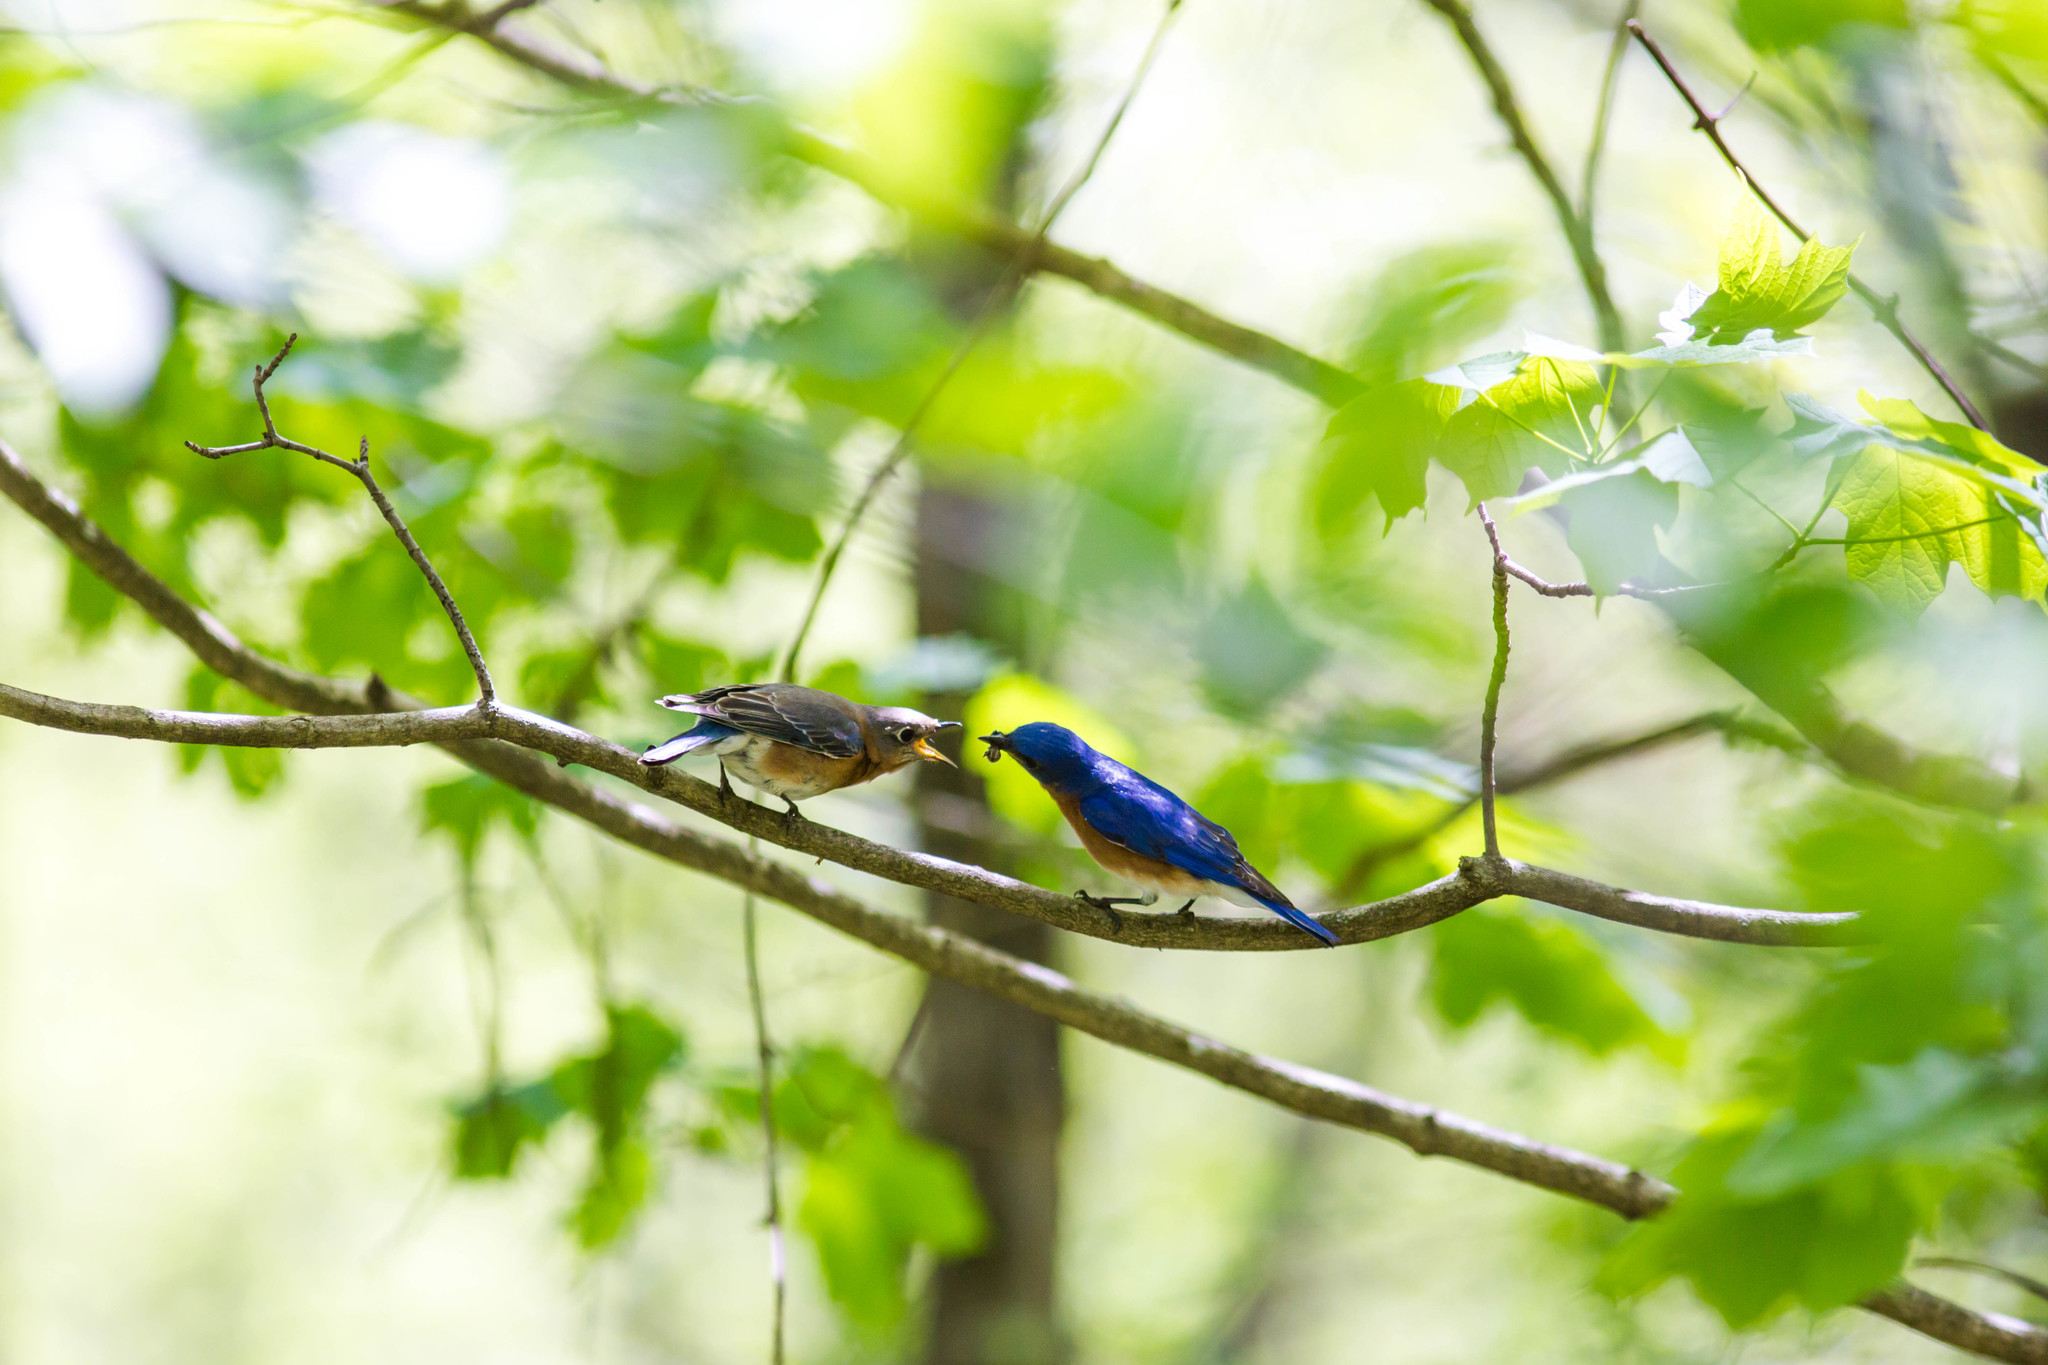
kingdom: Animalia
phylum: Chordata
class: Aves
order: Passeriformes
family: Turdidae
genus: Sialia
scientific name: Sialia sialis
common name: Eastern bluebird
